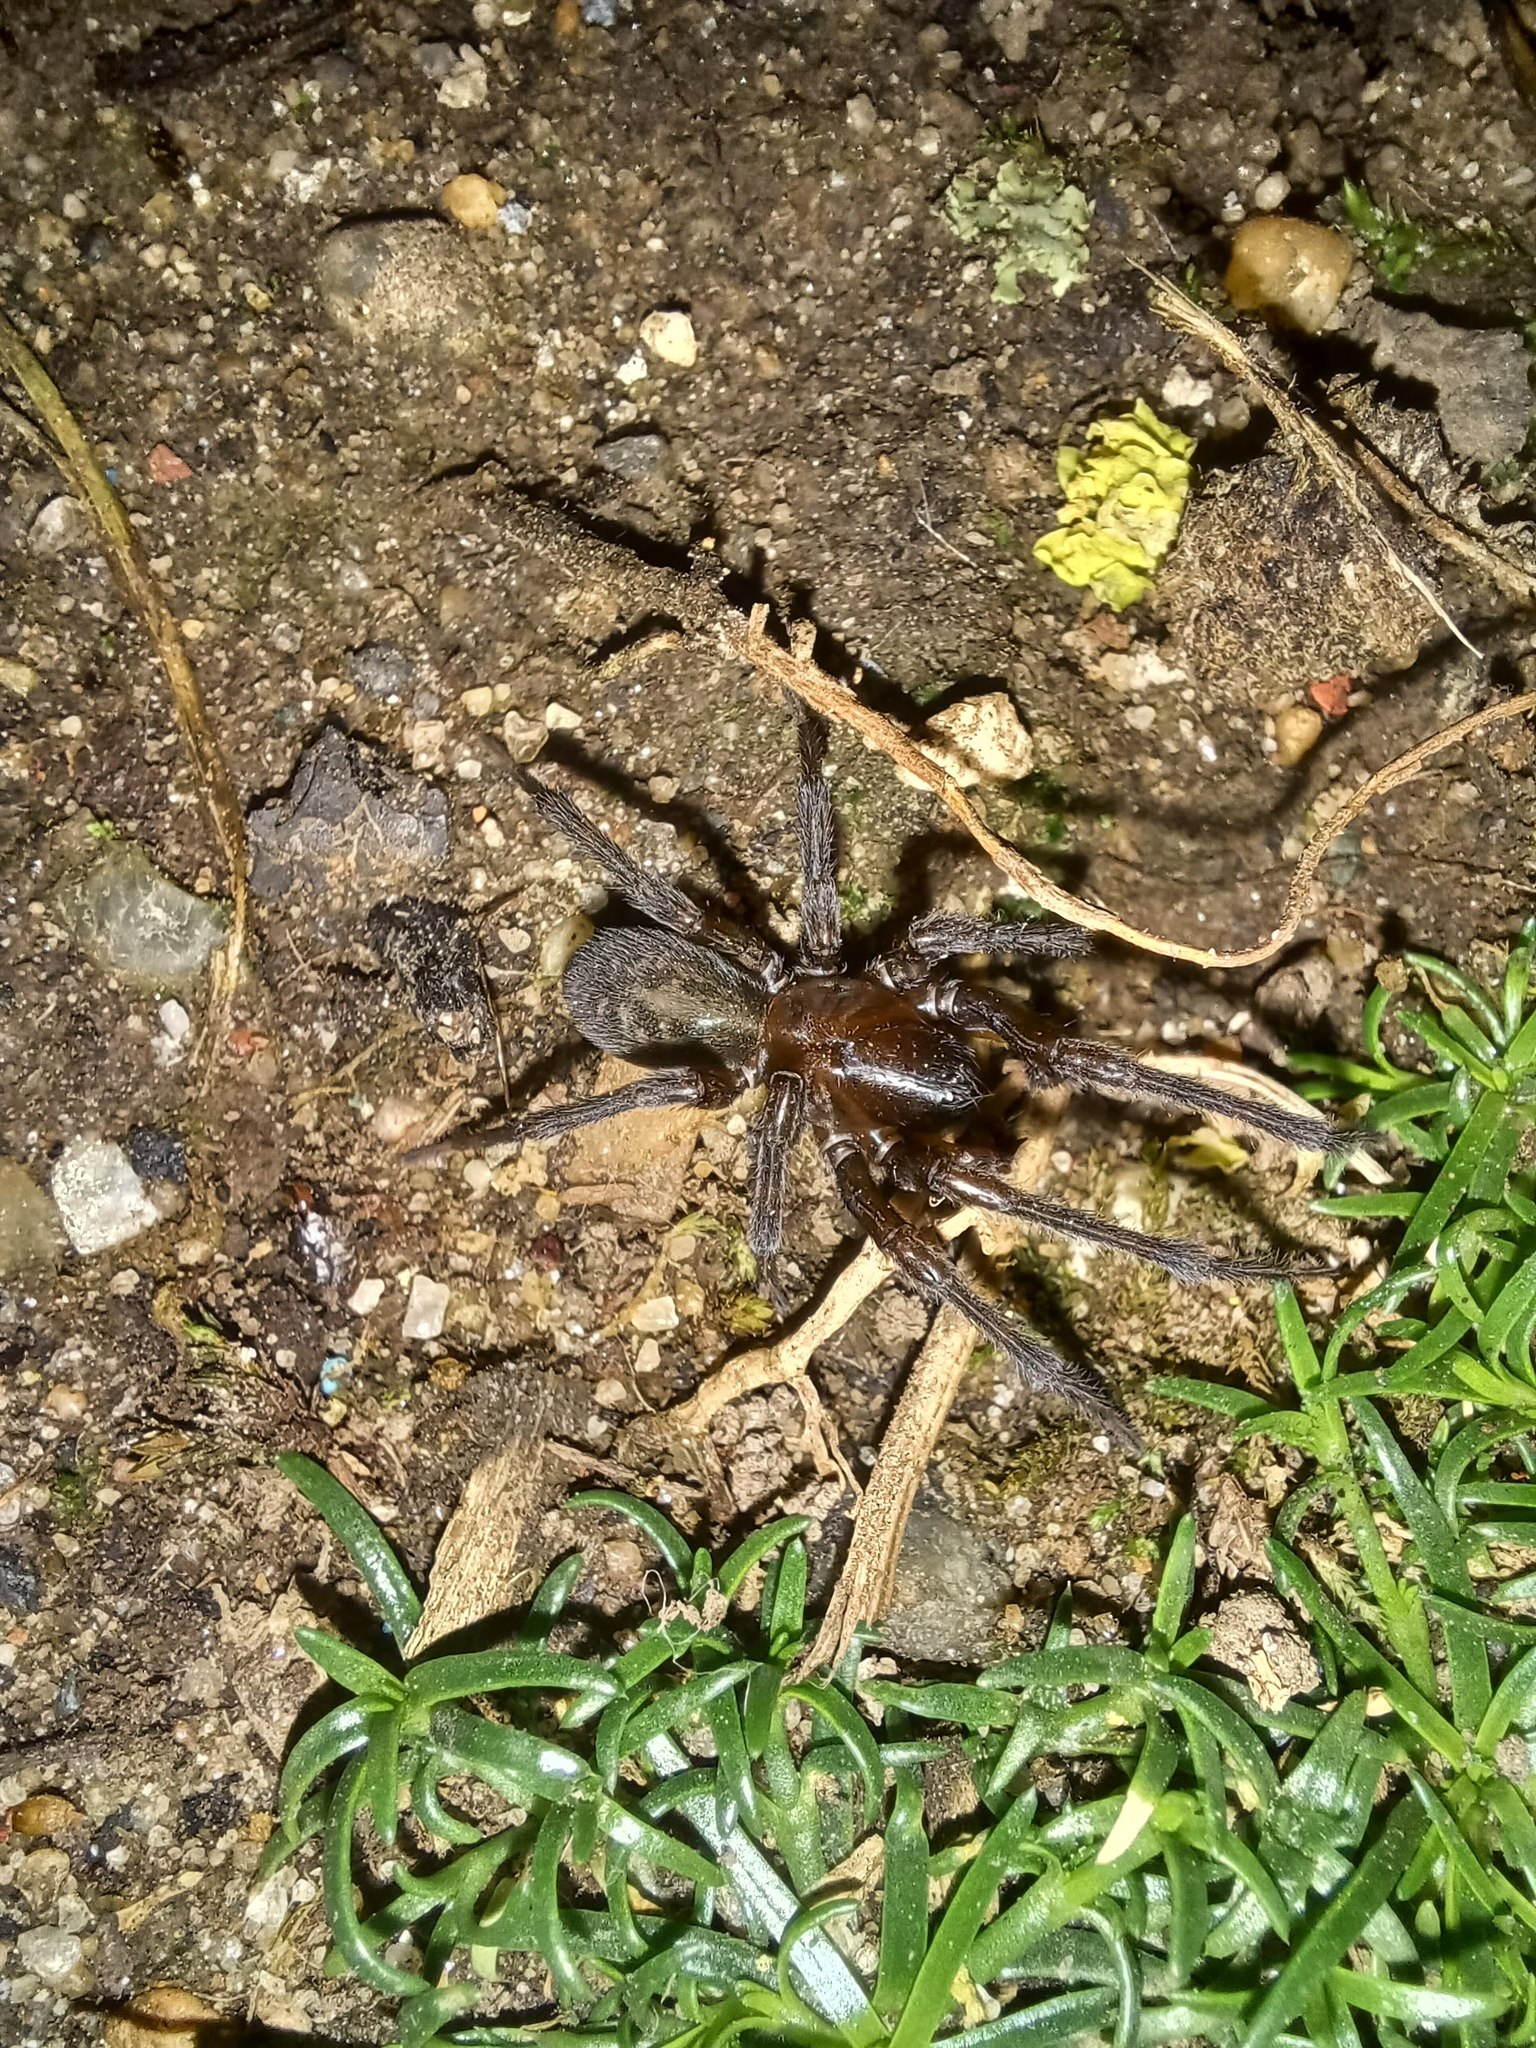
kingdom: Animalia
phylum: Arthropoda
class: Arachnida
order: Araneae
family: Amaurobiidae
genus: Amaurobius
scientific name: Amaurobius ferox
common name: Black laceweaver
